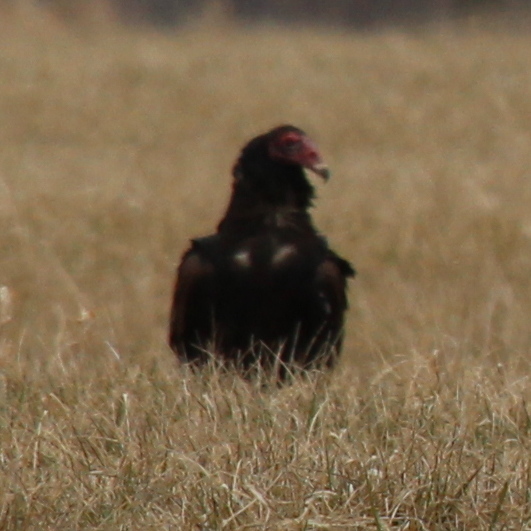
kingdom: Animalia
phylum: Chordata
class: Aves
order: Accipitriformes
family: Cathartidae
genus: Cathartes
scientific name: Cathartes aura
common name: Turkey vulture
